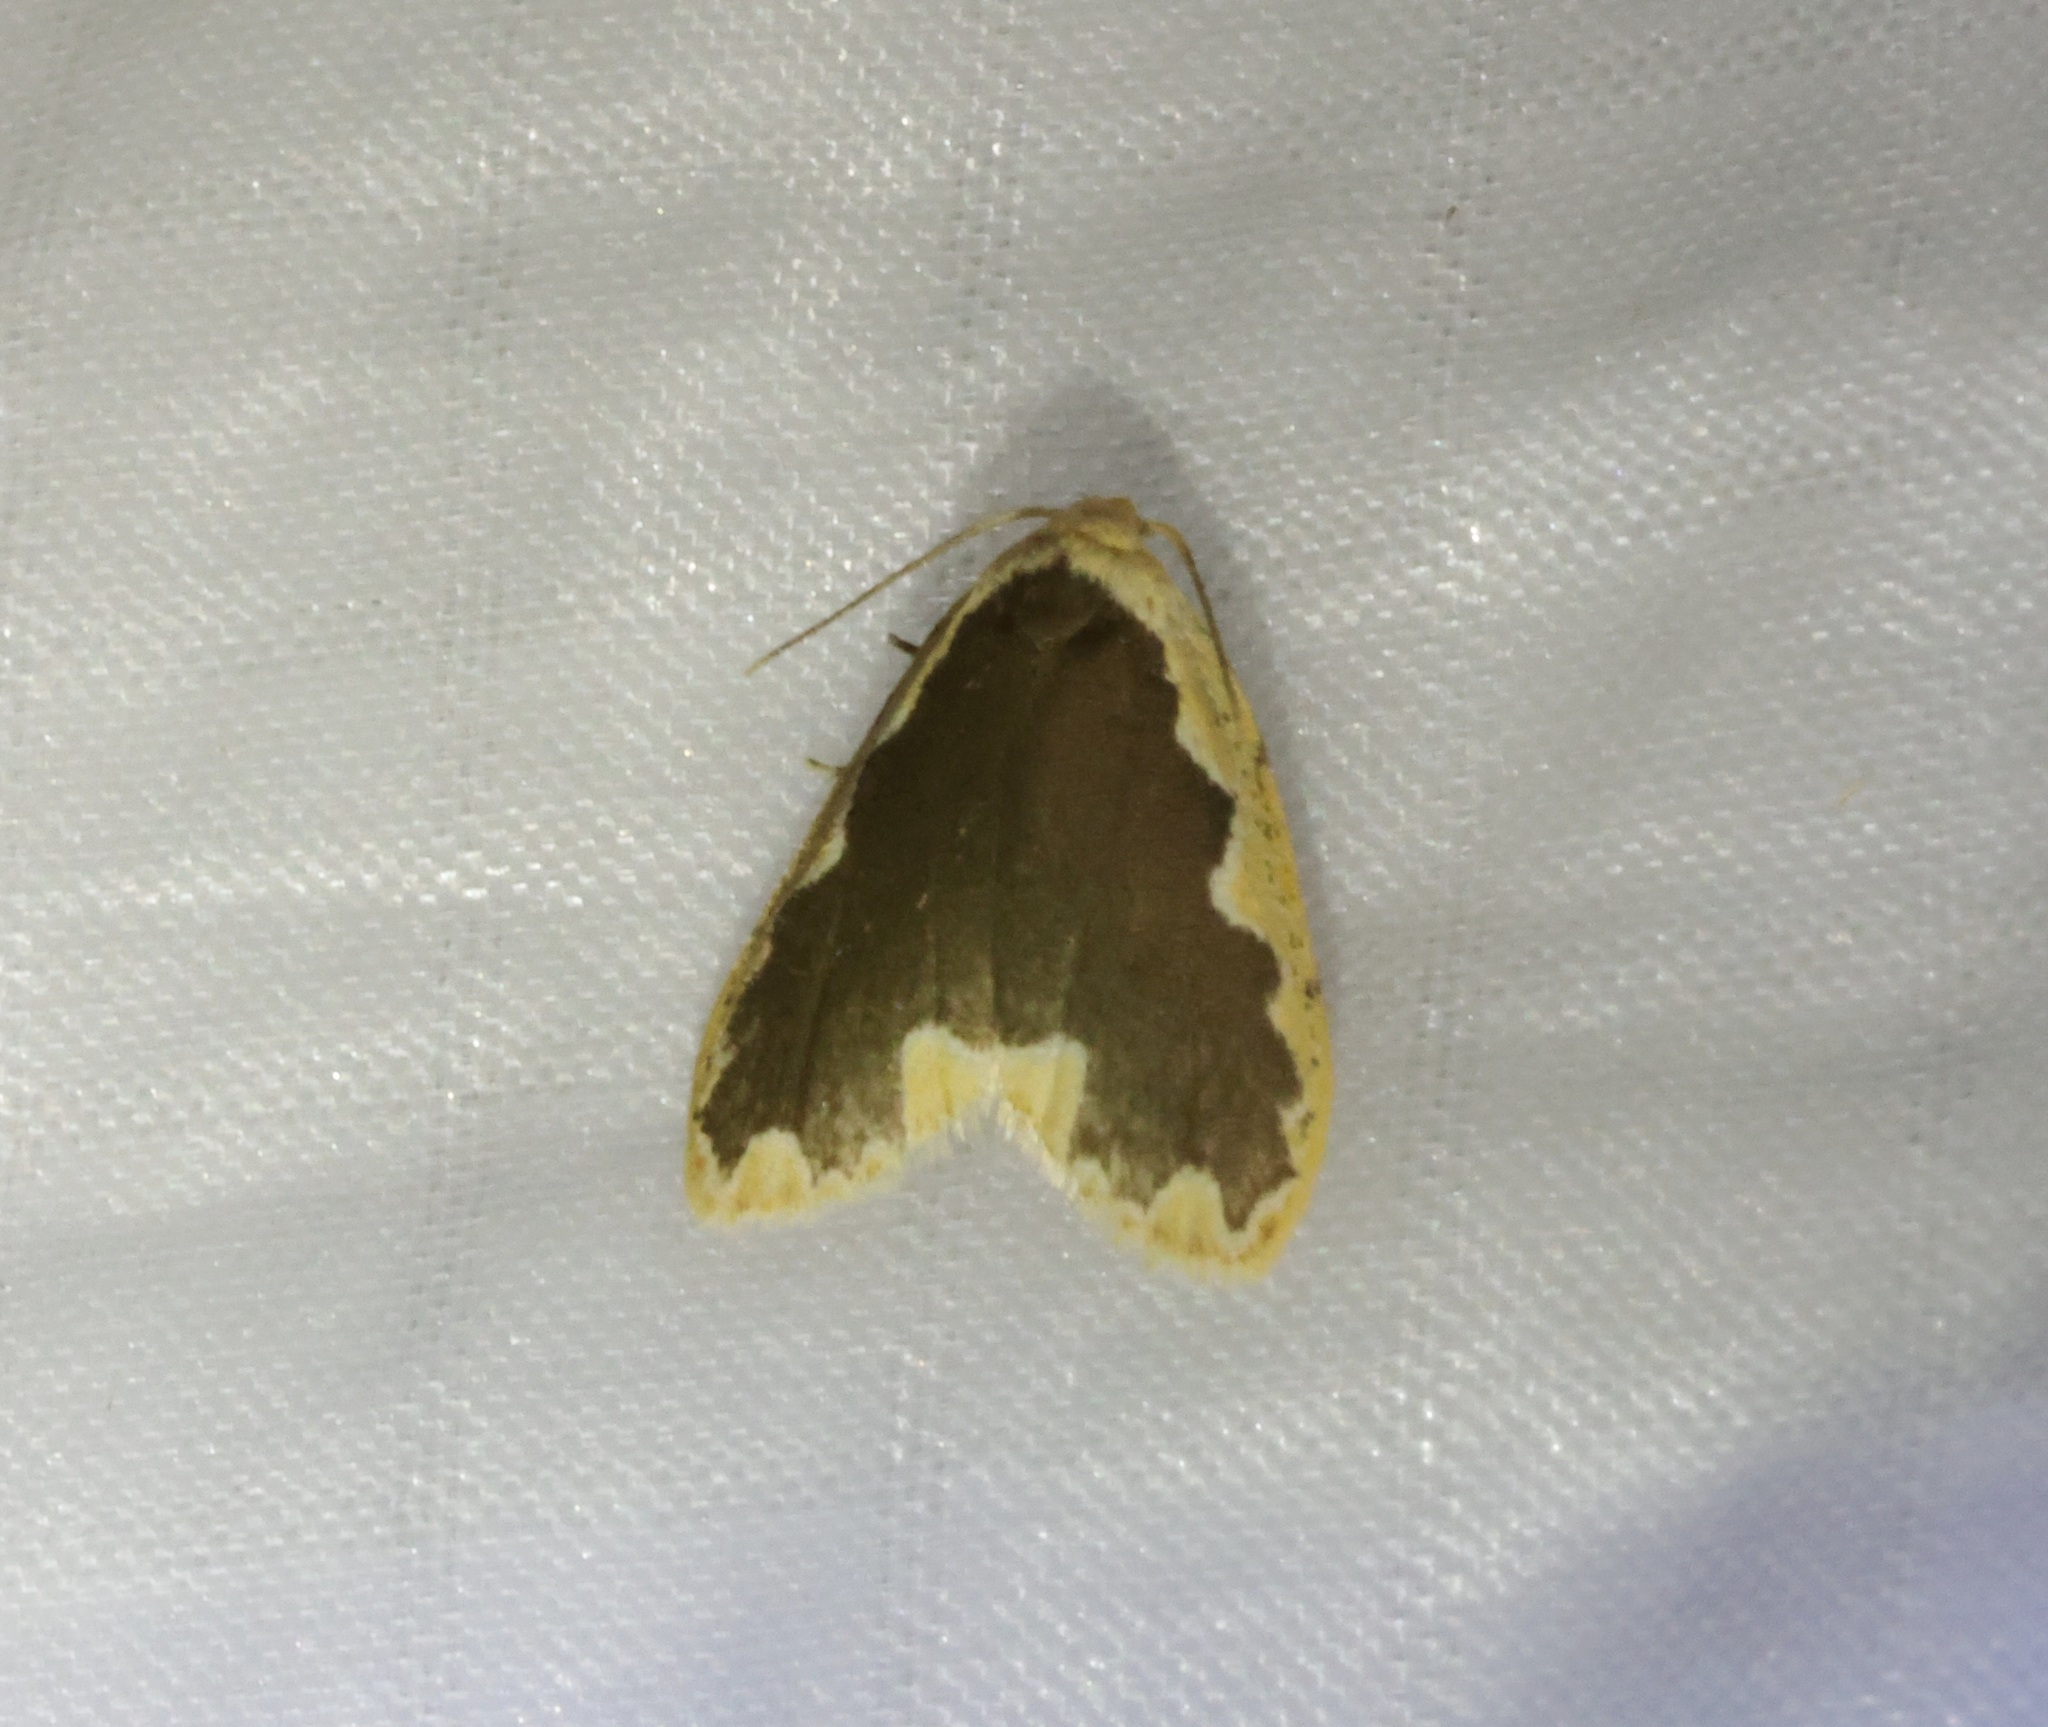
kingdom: Animalia
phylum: Arthropoda
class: Insecta
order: Lepidoptera
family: Erebidae
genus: Diduga
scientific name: Diduga flavicostata
